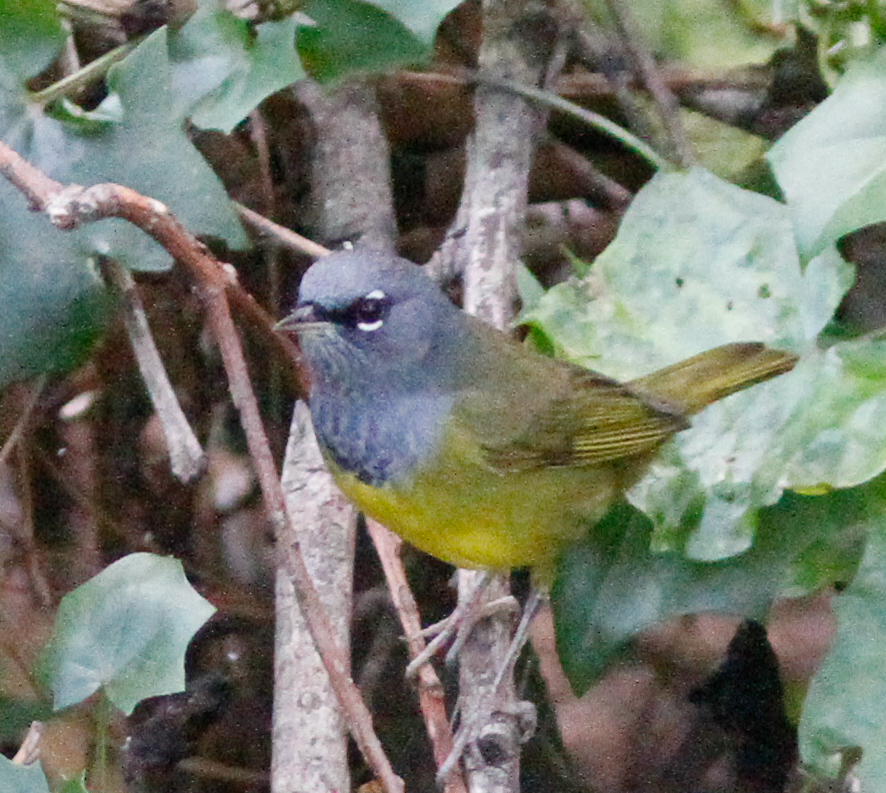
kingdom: Animalia
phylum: Chordata
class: Aves
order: Passeriformes
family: Parulidae
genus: Geothlypis
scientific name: Geothlypis tolmiei
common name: Macgillivray's warbler
